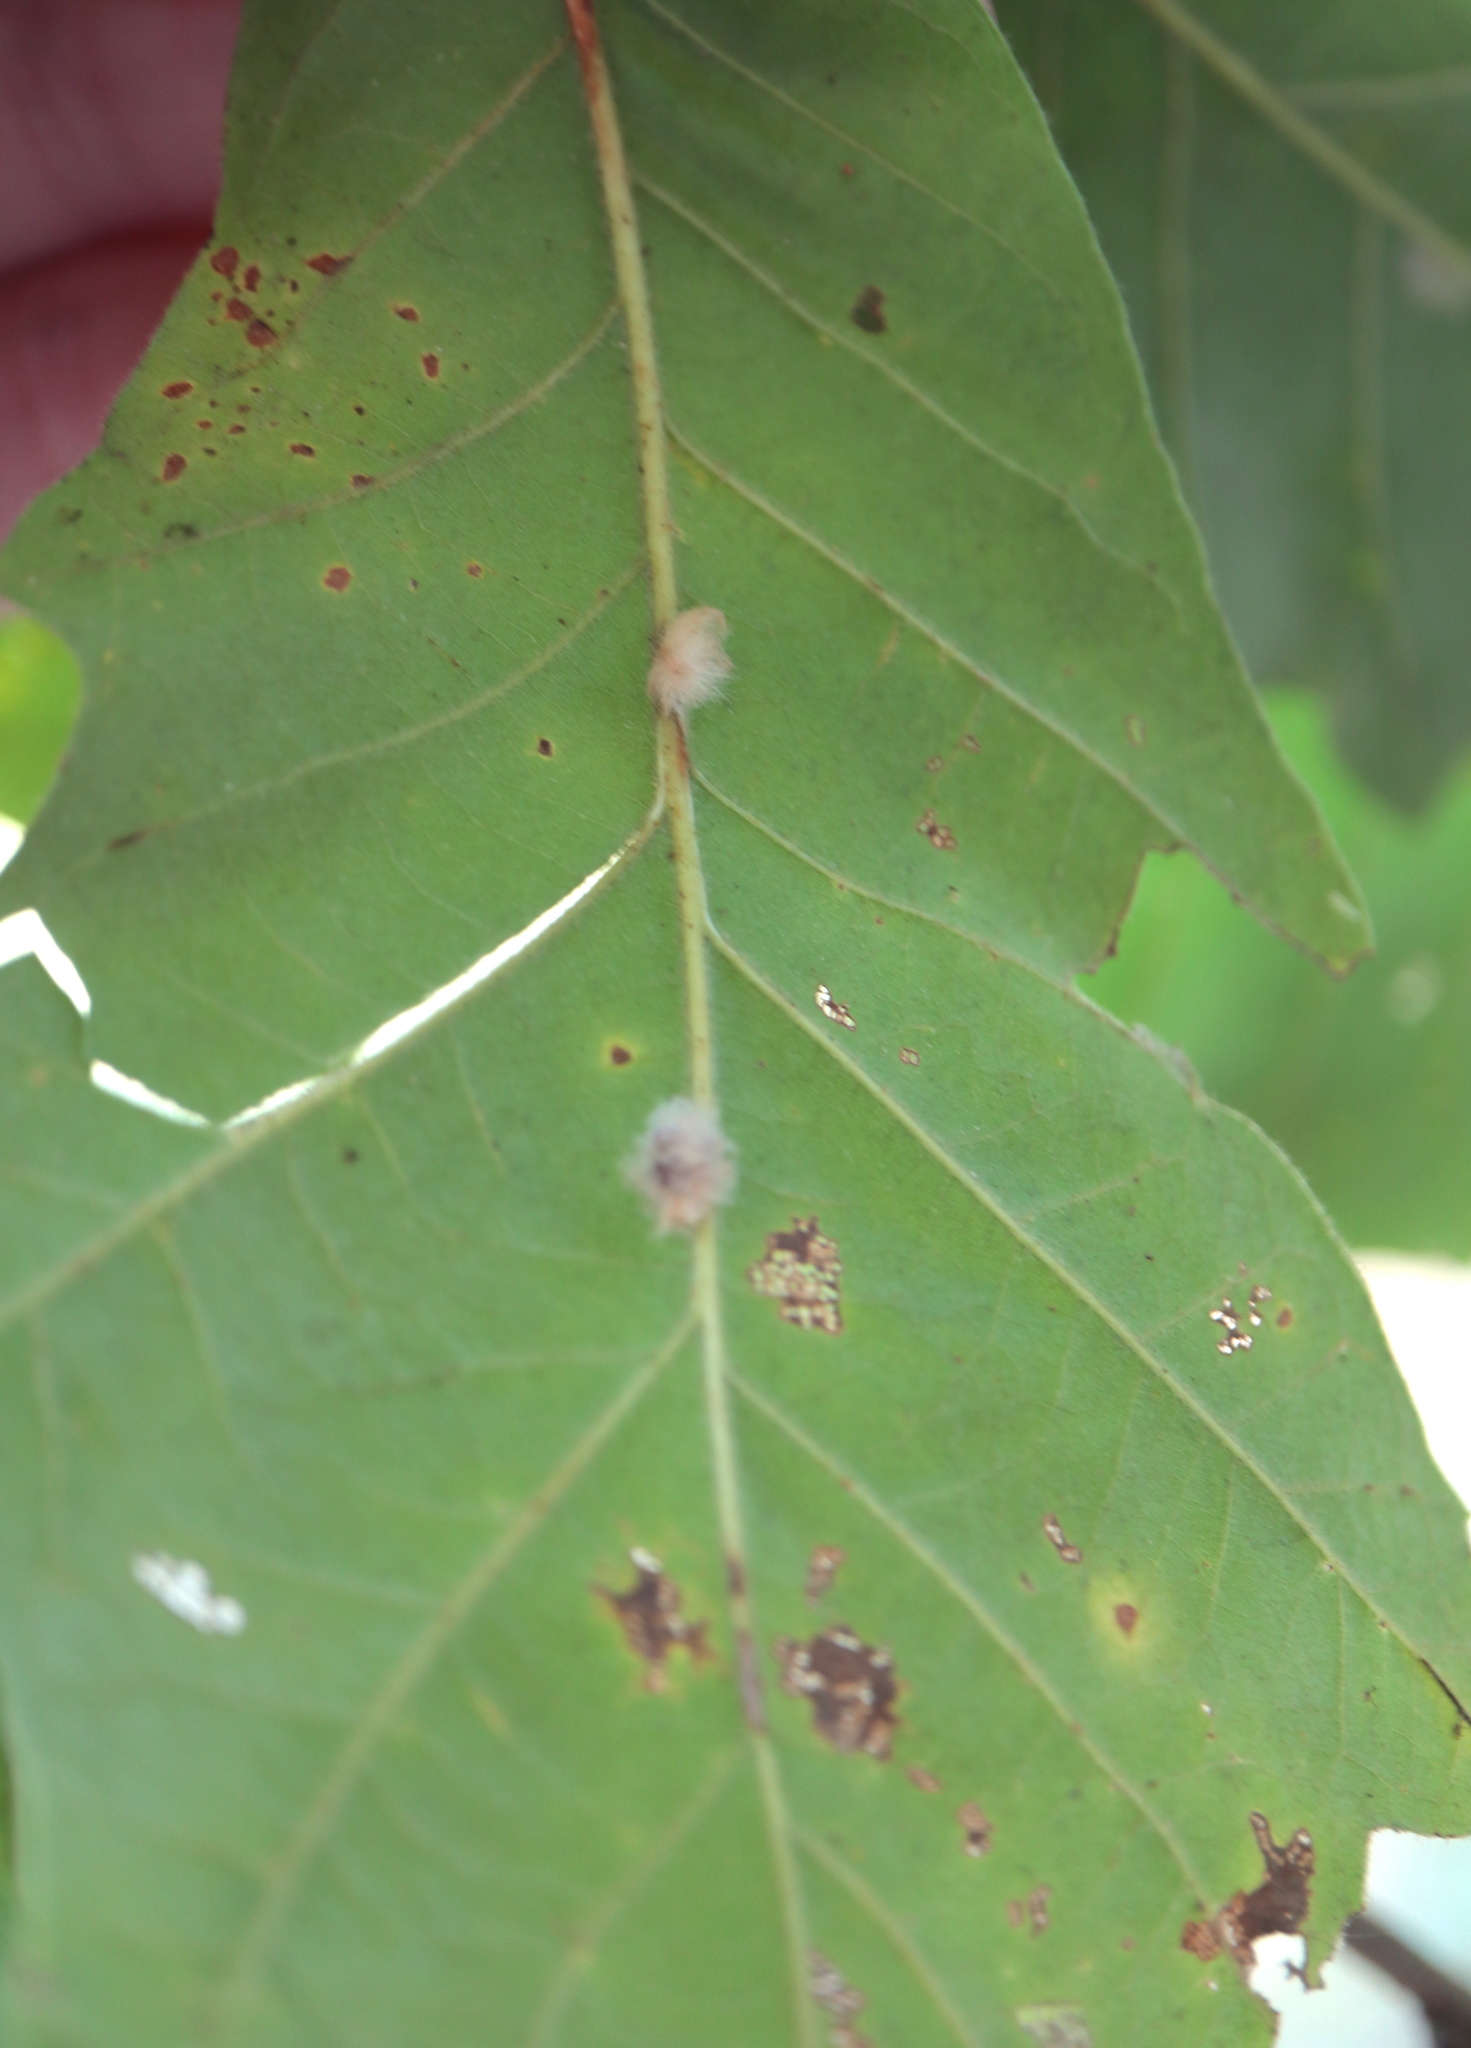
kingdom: Animalia
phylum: Arthropoda
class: Insecta
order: Hymenoptera
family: Cynipidae
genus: Andricus
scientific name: Andricus Druon ignotum
